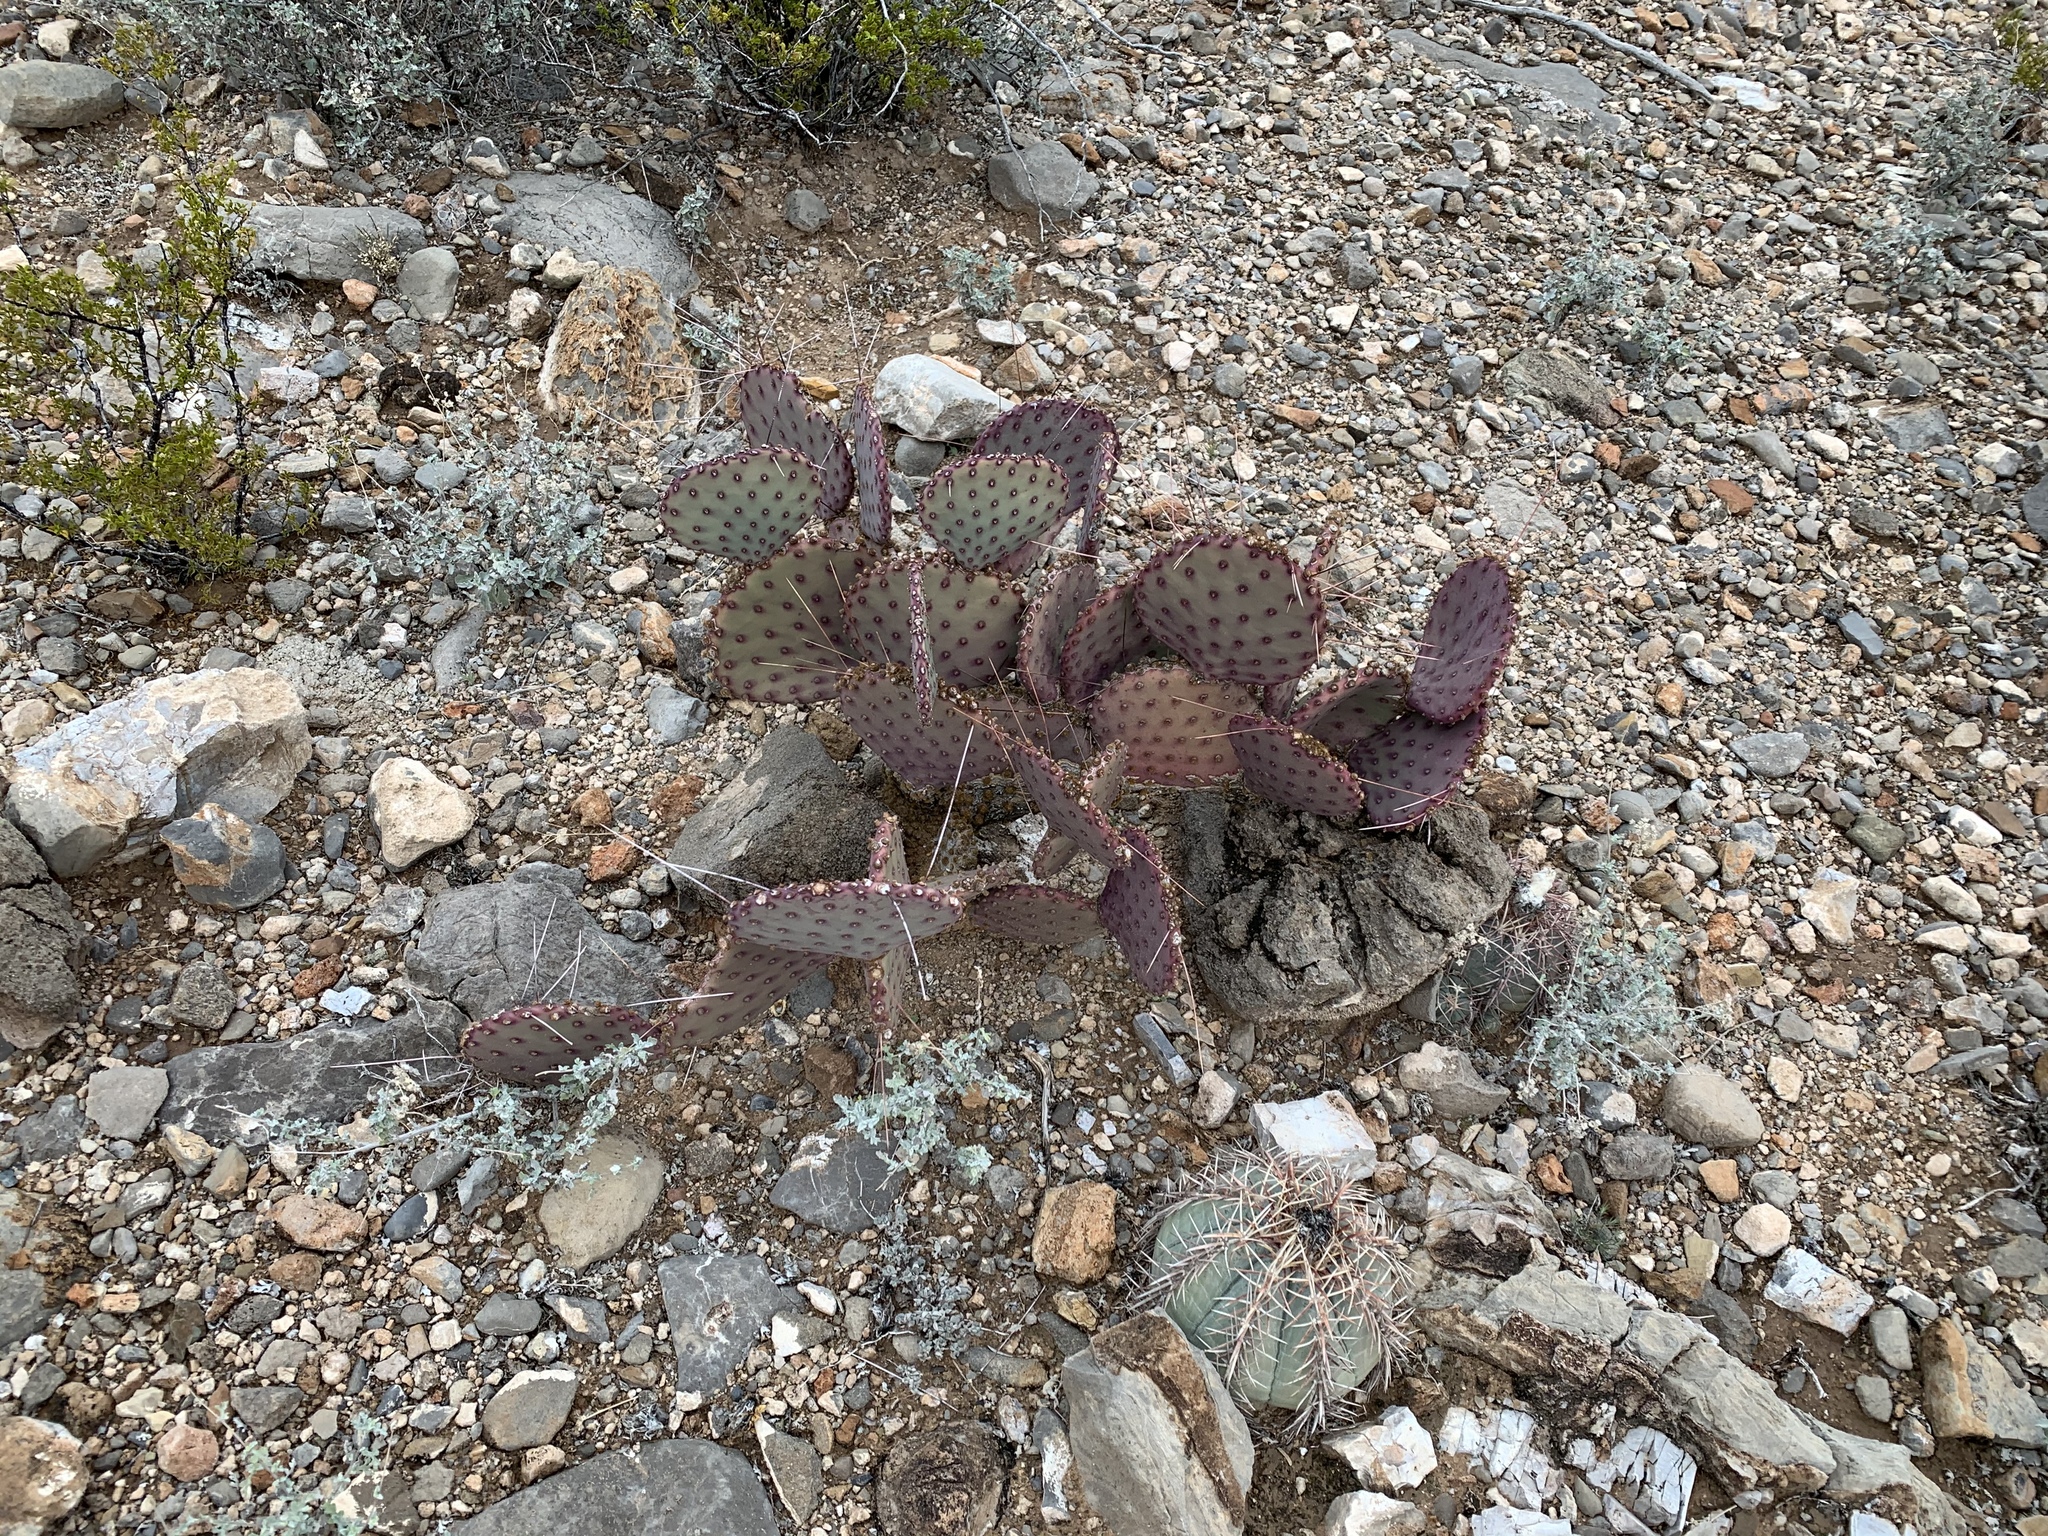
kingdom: Plantae
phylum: Tracheophyta
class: Magnoliopsida
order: Caryophyllales
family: Cactaceae
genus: Opuntia
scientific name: Opuntia macrocentra
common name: Purple prickly-pear
